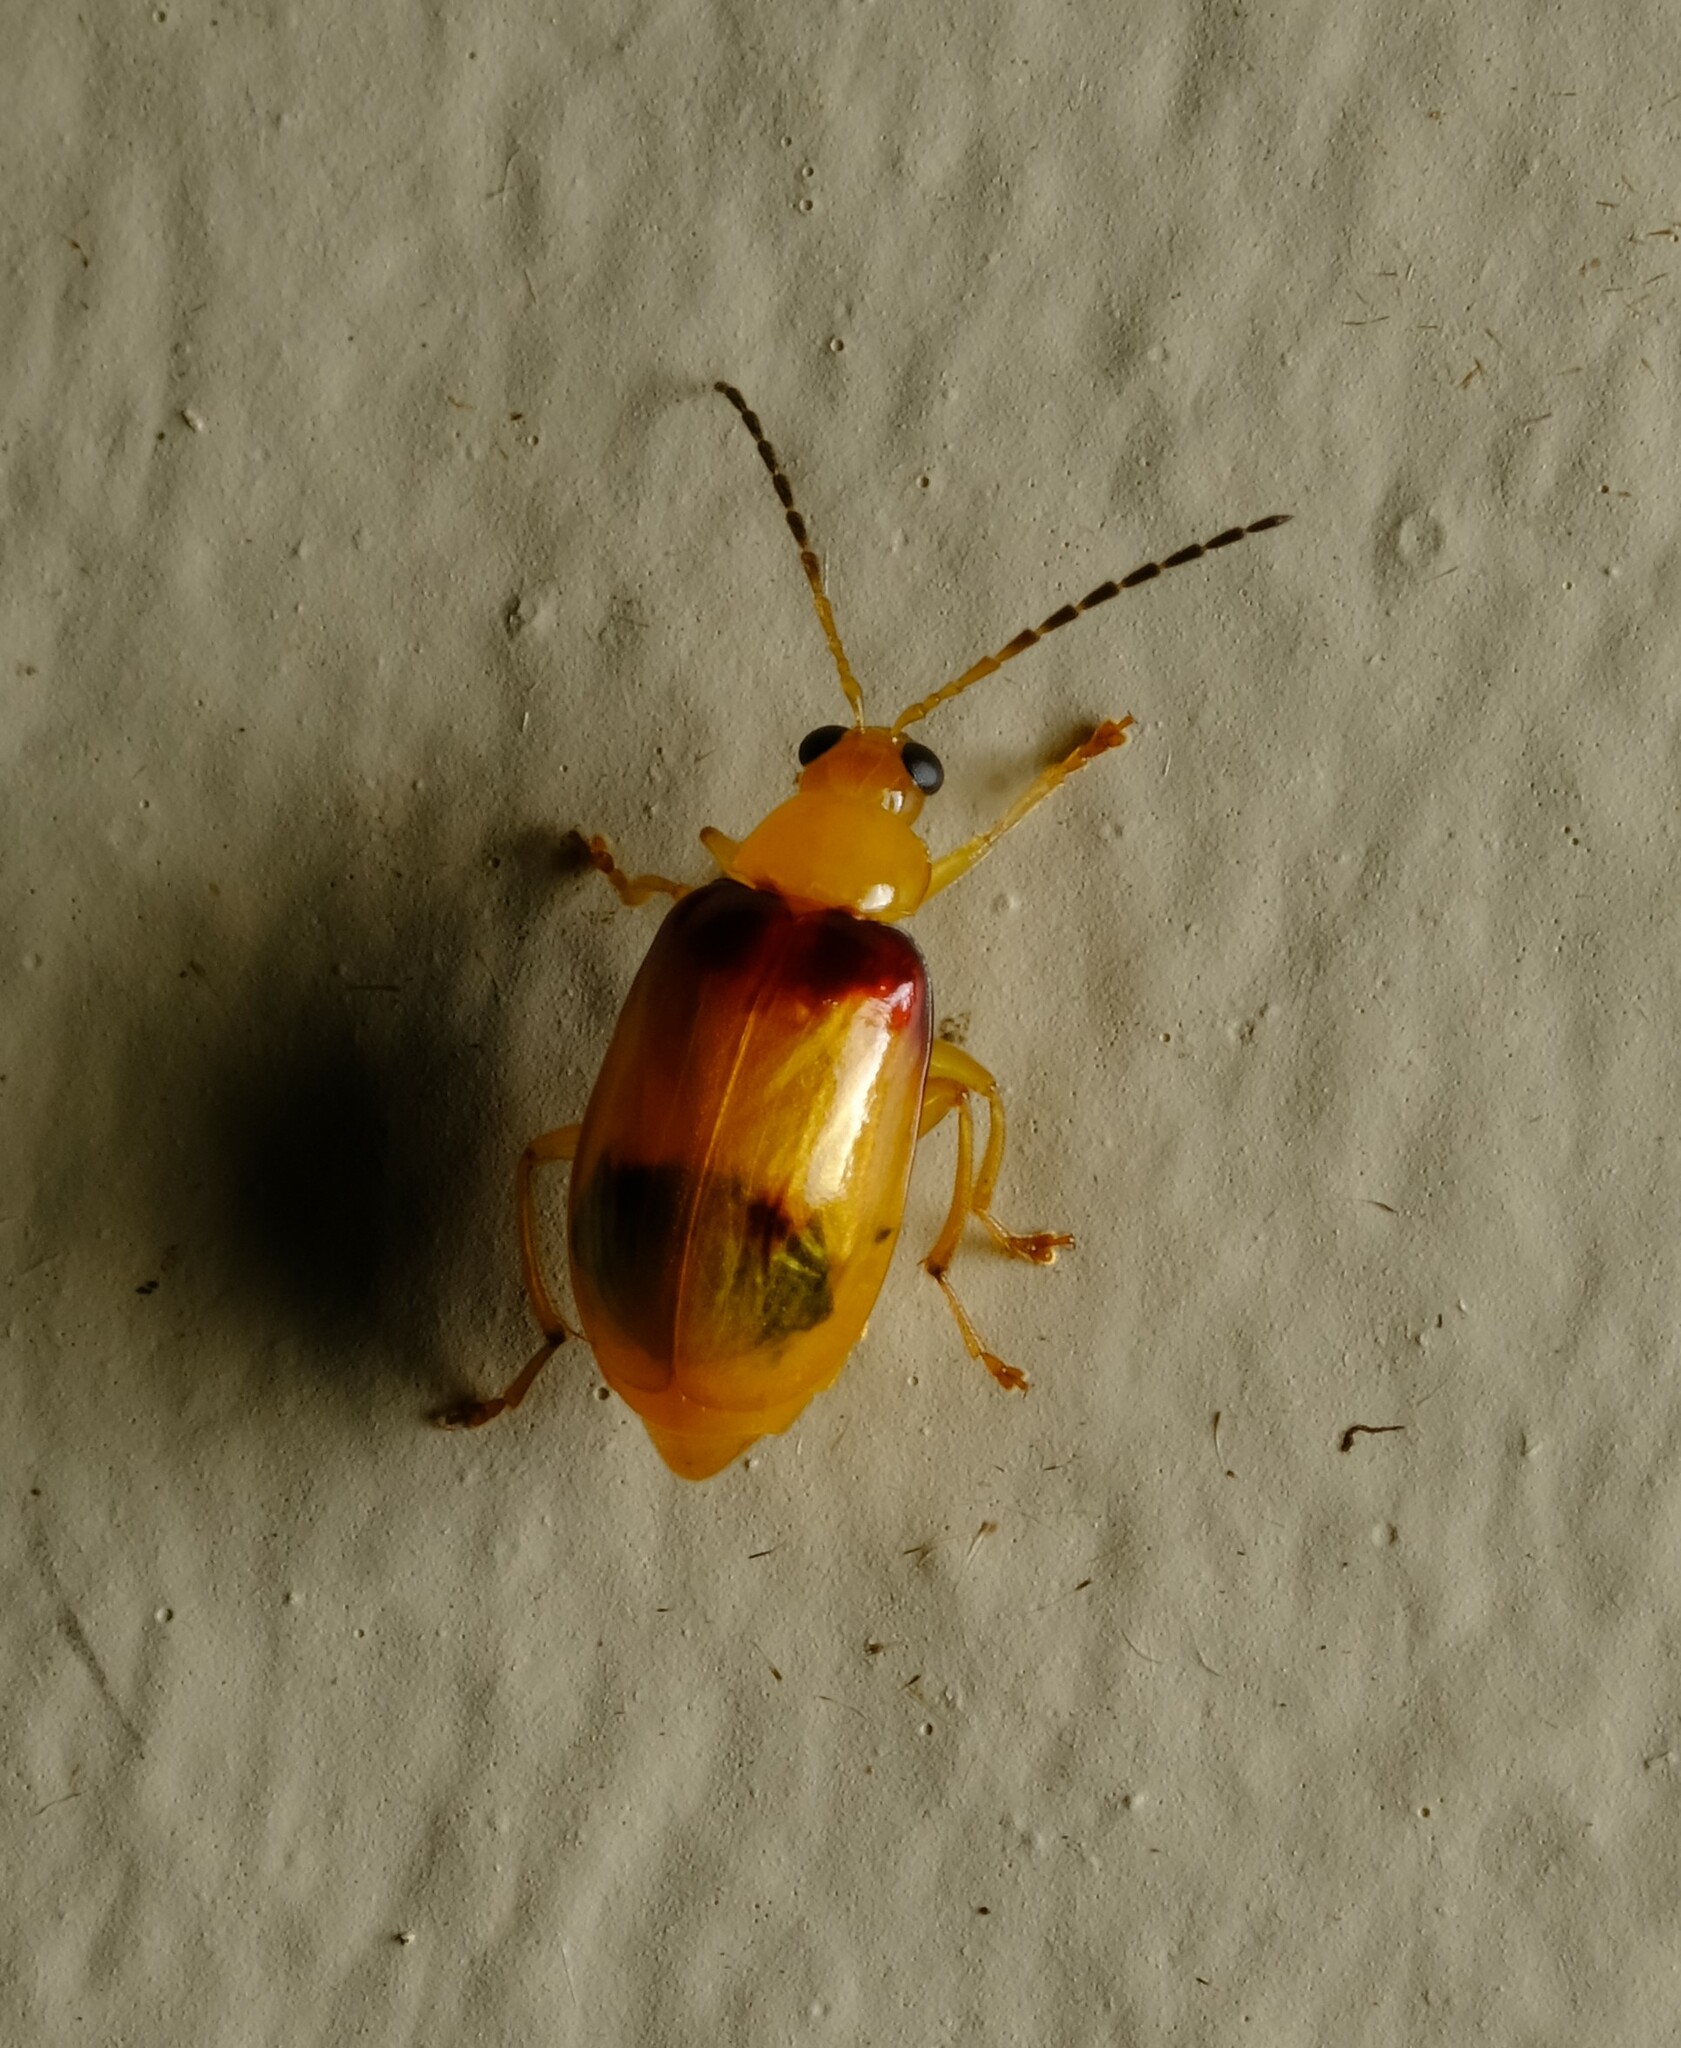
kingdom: Animalia
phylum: Arthropoda
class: Insecta
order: Coleoptera
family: Chrysomelidae
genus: Monolepta
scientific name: Monolepta
